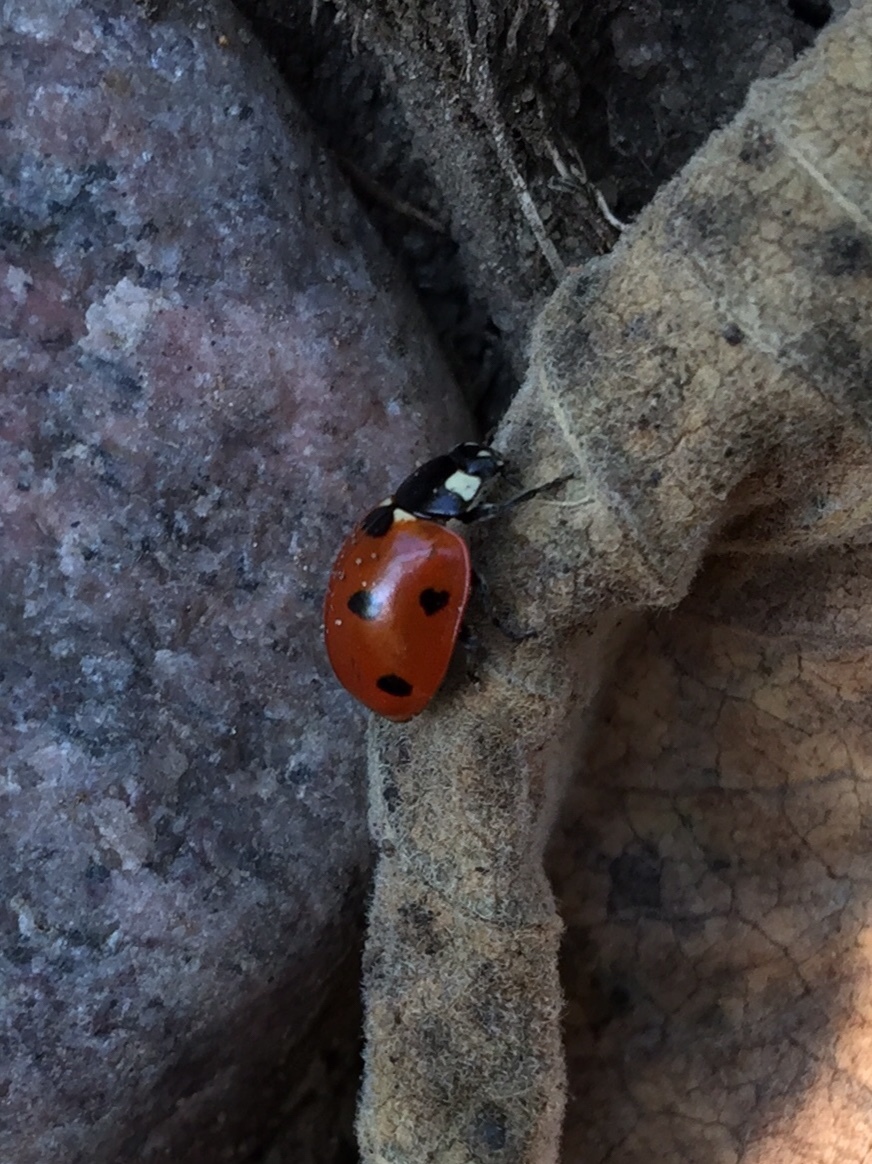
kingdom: Animalia
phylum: Arthropoda
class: Insecta
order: Coleoptera
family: Coccinellidae
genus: Coccinella
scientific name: Coccinella septempunctata
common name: Sevenspotted lady beetle
